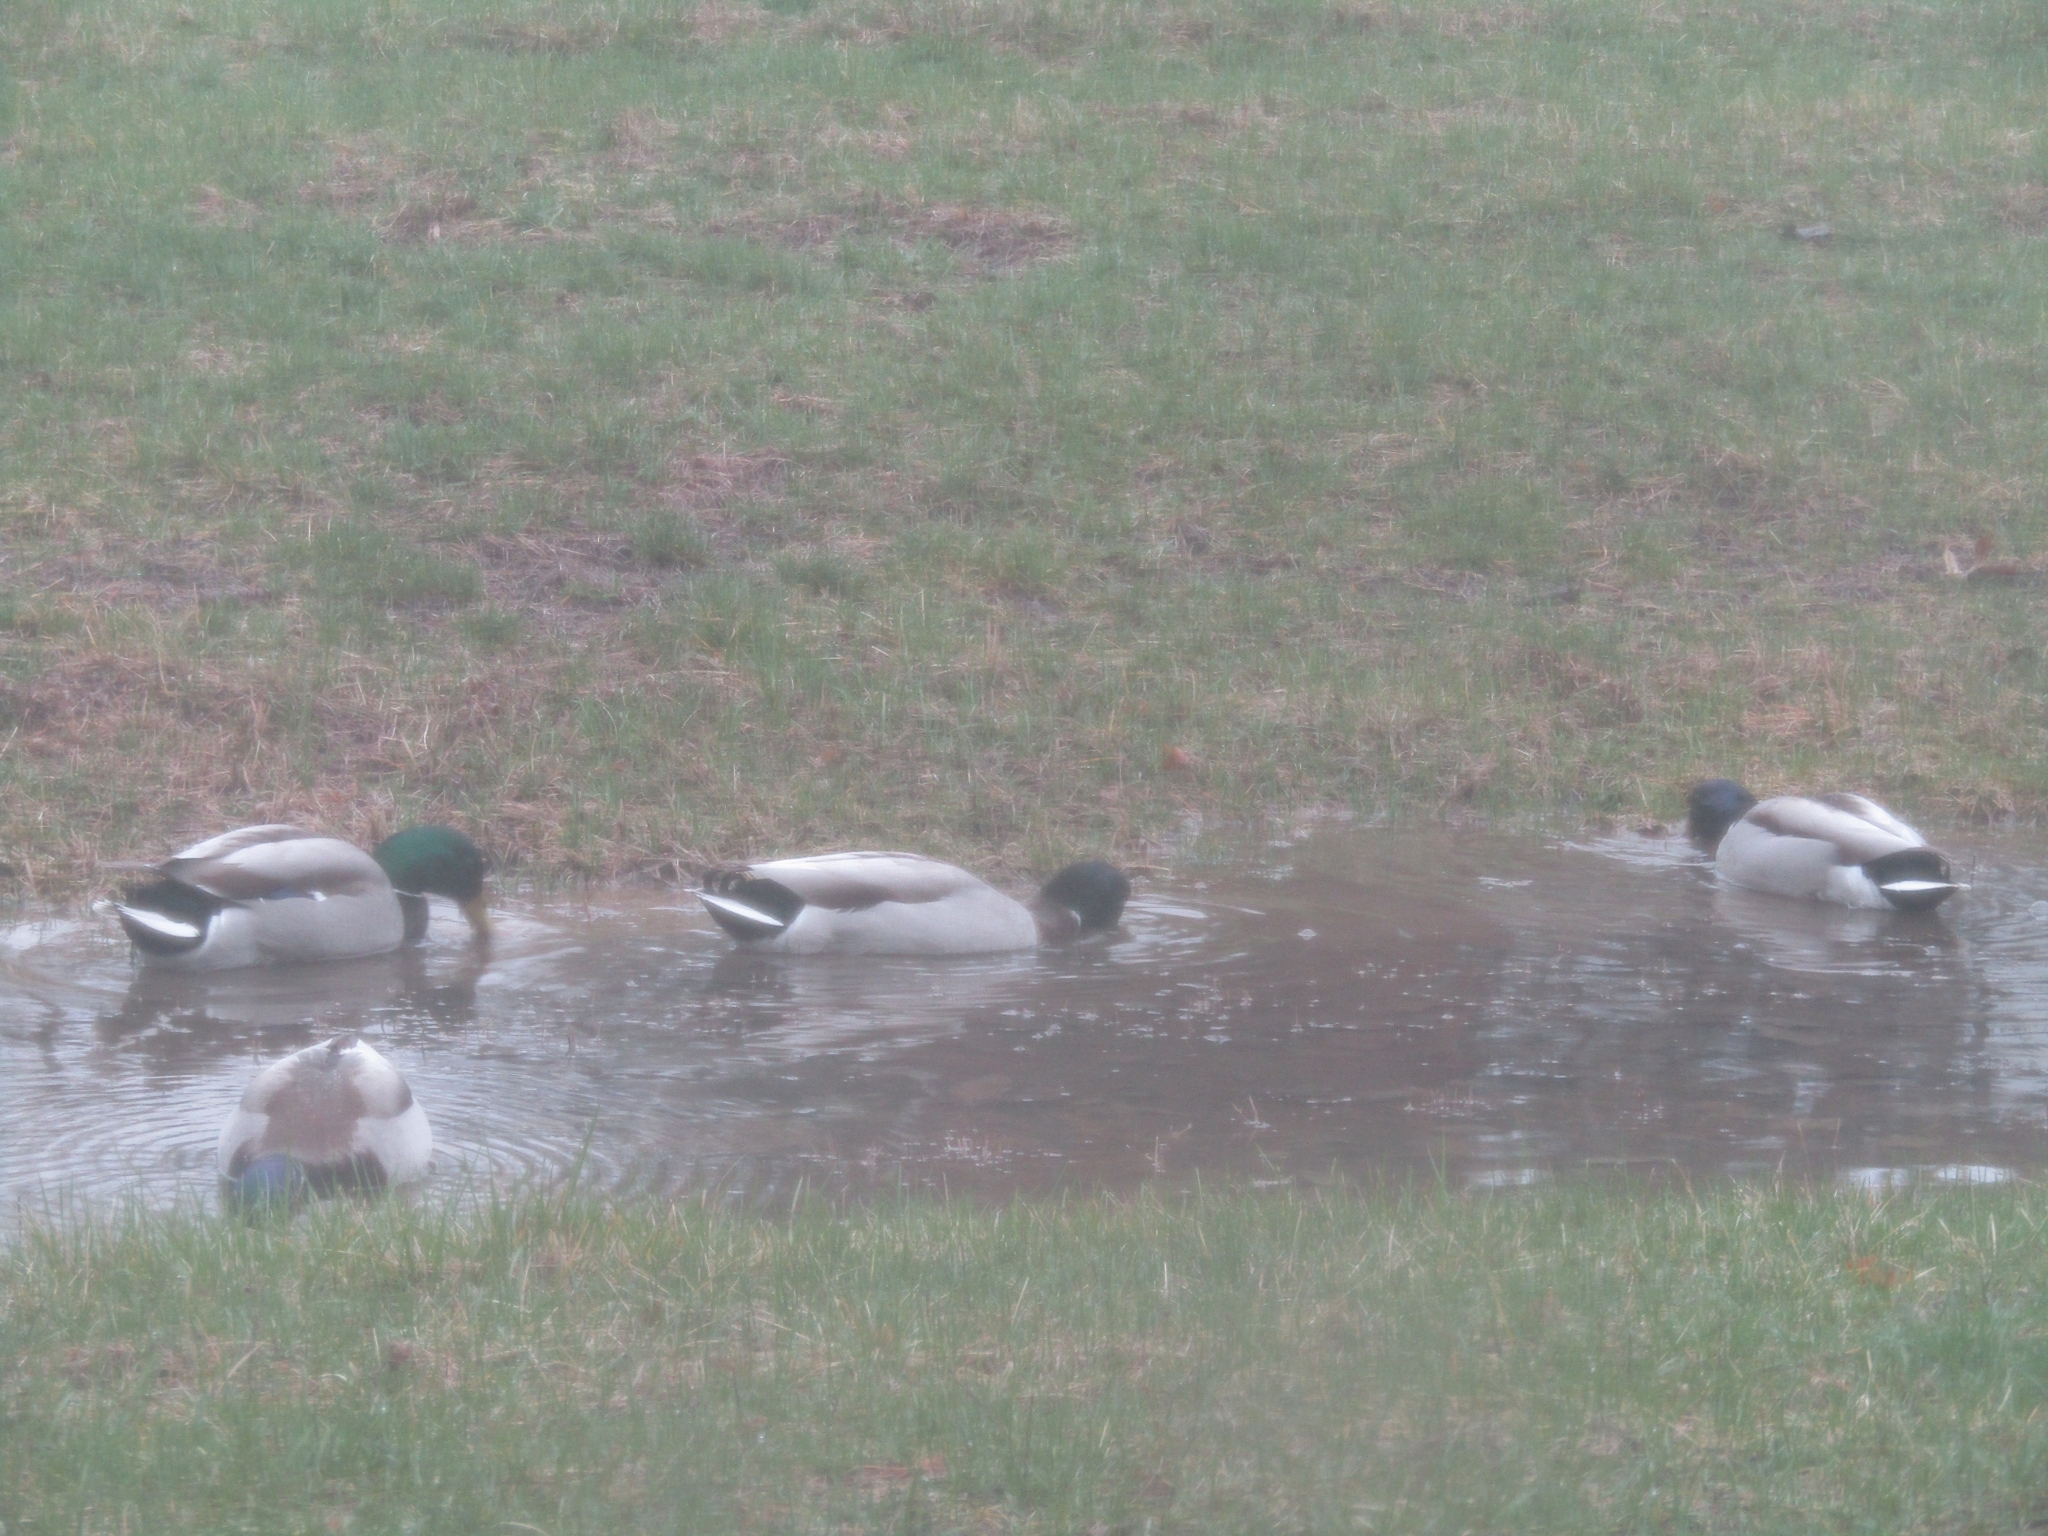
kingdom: Animalia
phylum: Chordata
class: Aves
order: Anseriformes
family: Anatidae
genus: Anas
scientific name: Anas platyrhynchos
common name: Mallard
